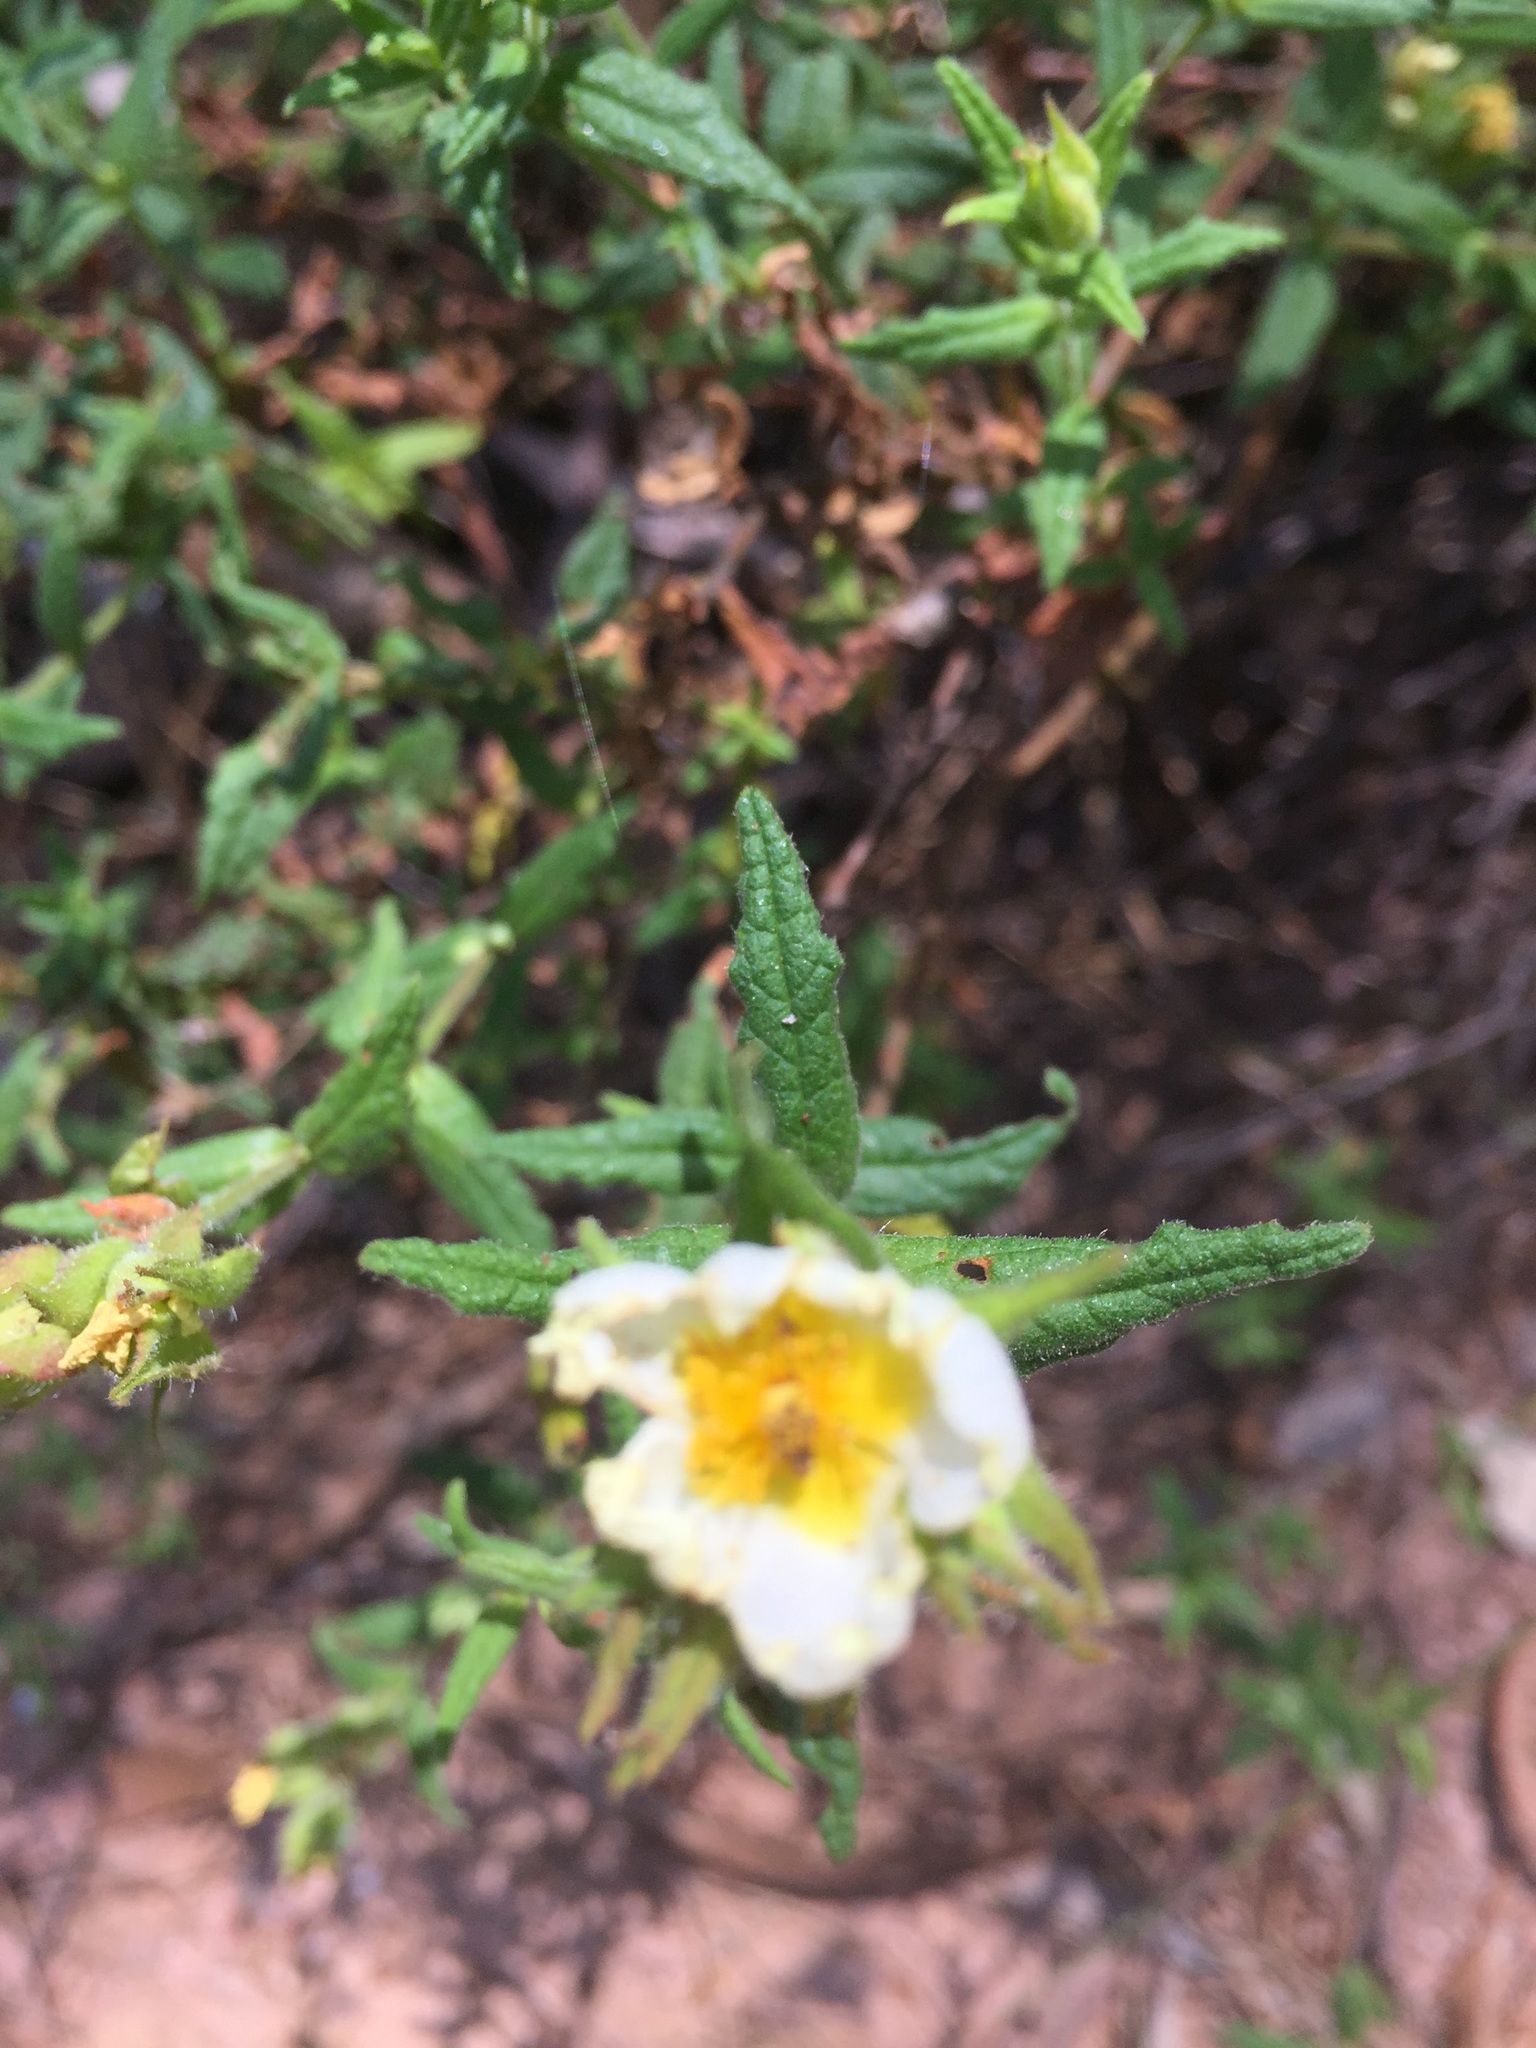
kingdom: Plantae
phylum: Tracheophyta
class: Magnoliopsida
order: Malvales
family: Cistaceae
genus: Cistus
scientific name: Cistus inflatus
